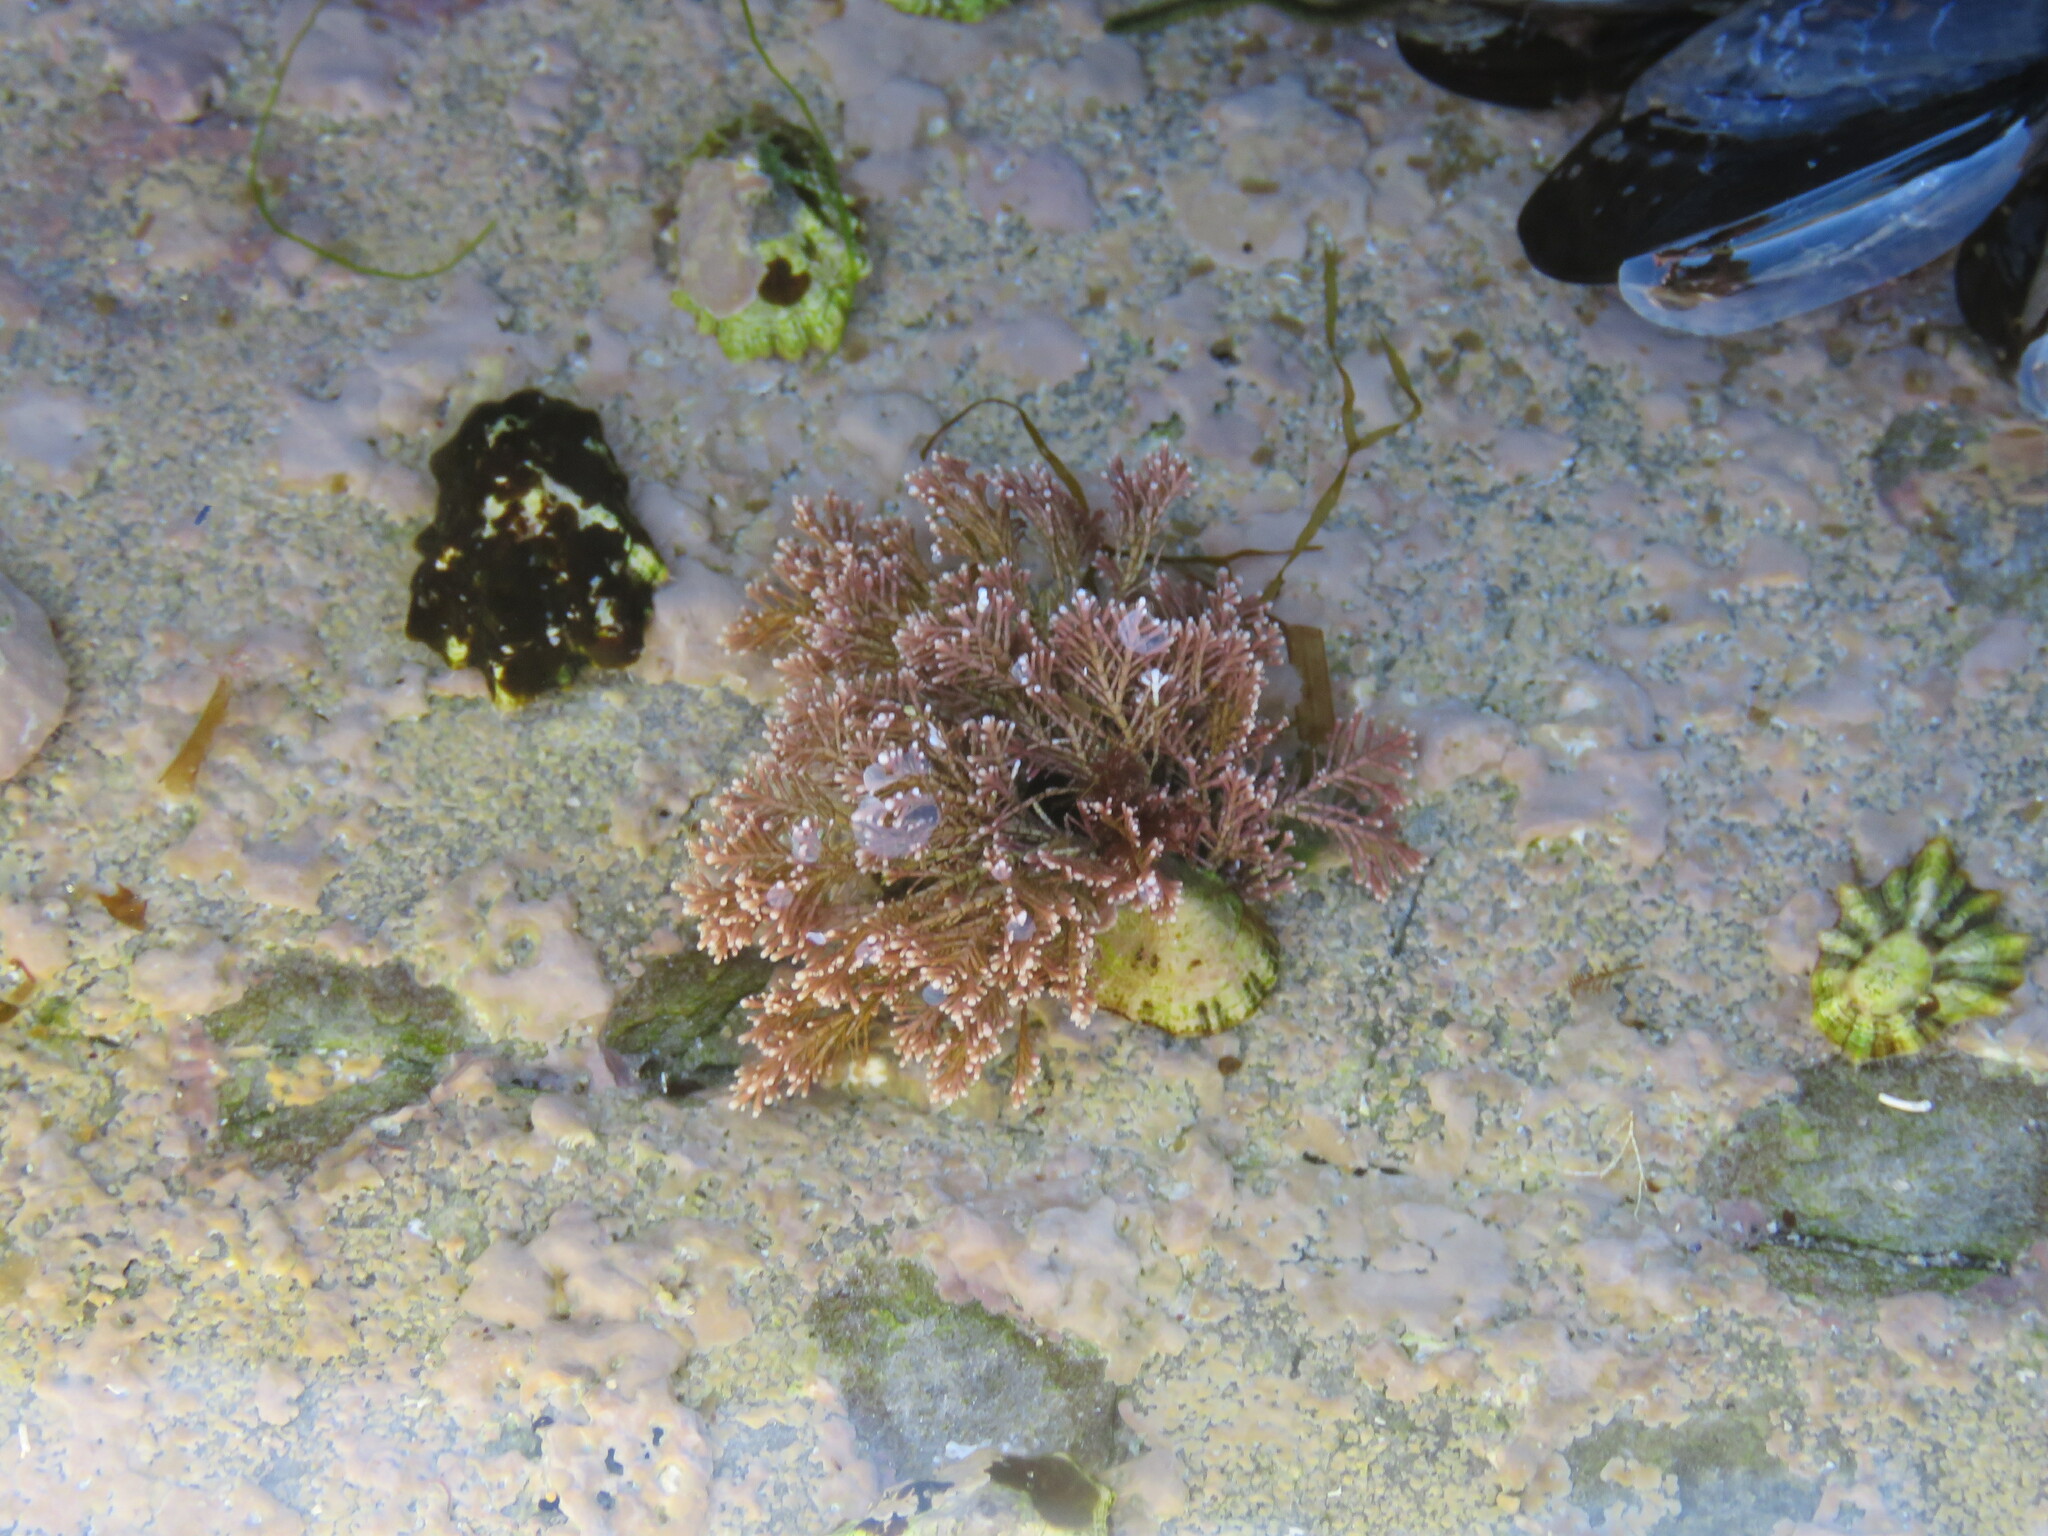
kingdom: Plantae
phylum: Rhodophyta
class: Florideophyceae
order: Corallinales
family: Corallinaceae
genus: Corallina
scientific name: Corallina officinalis
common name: Coral weed
